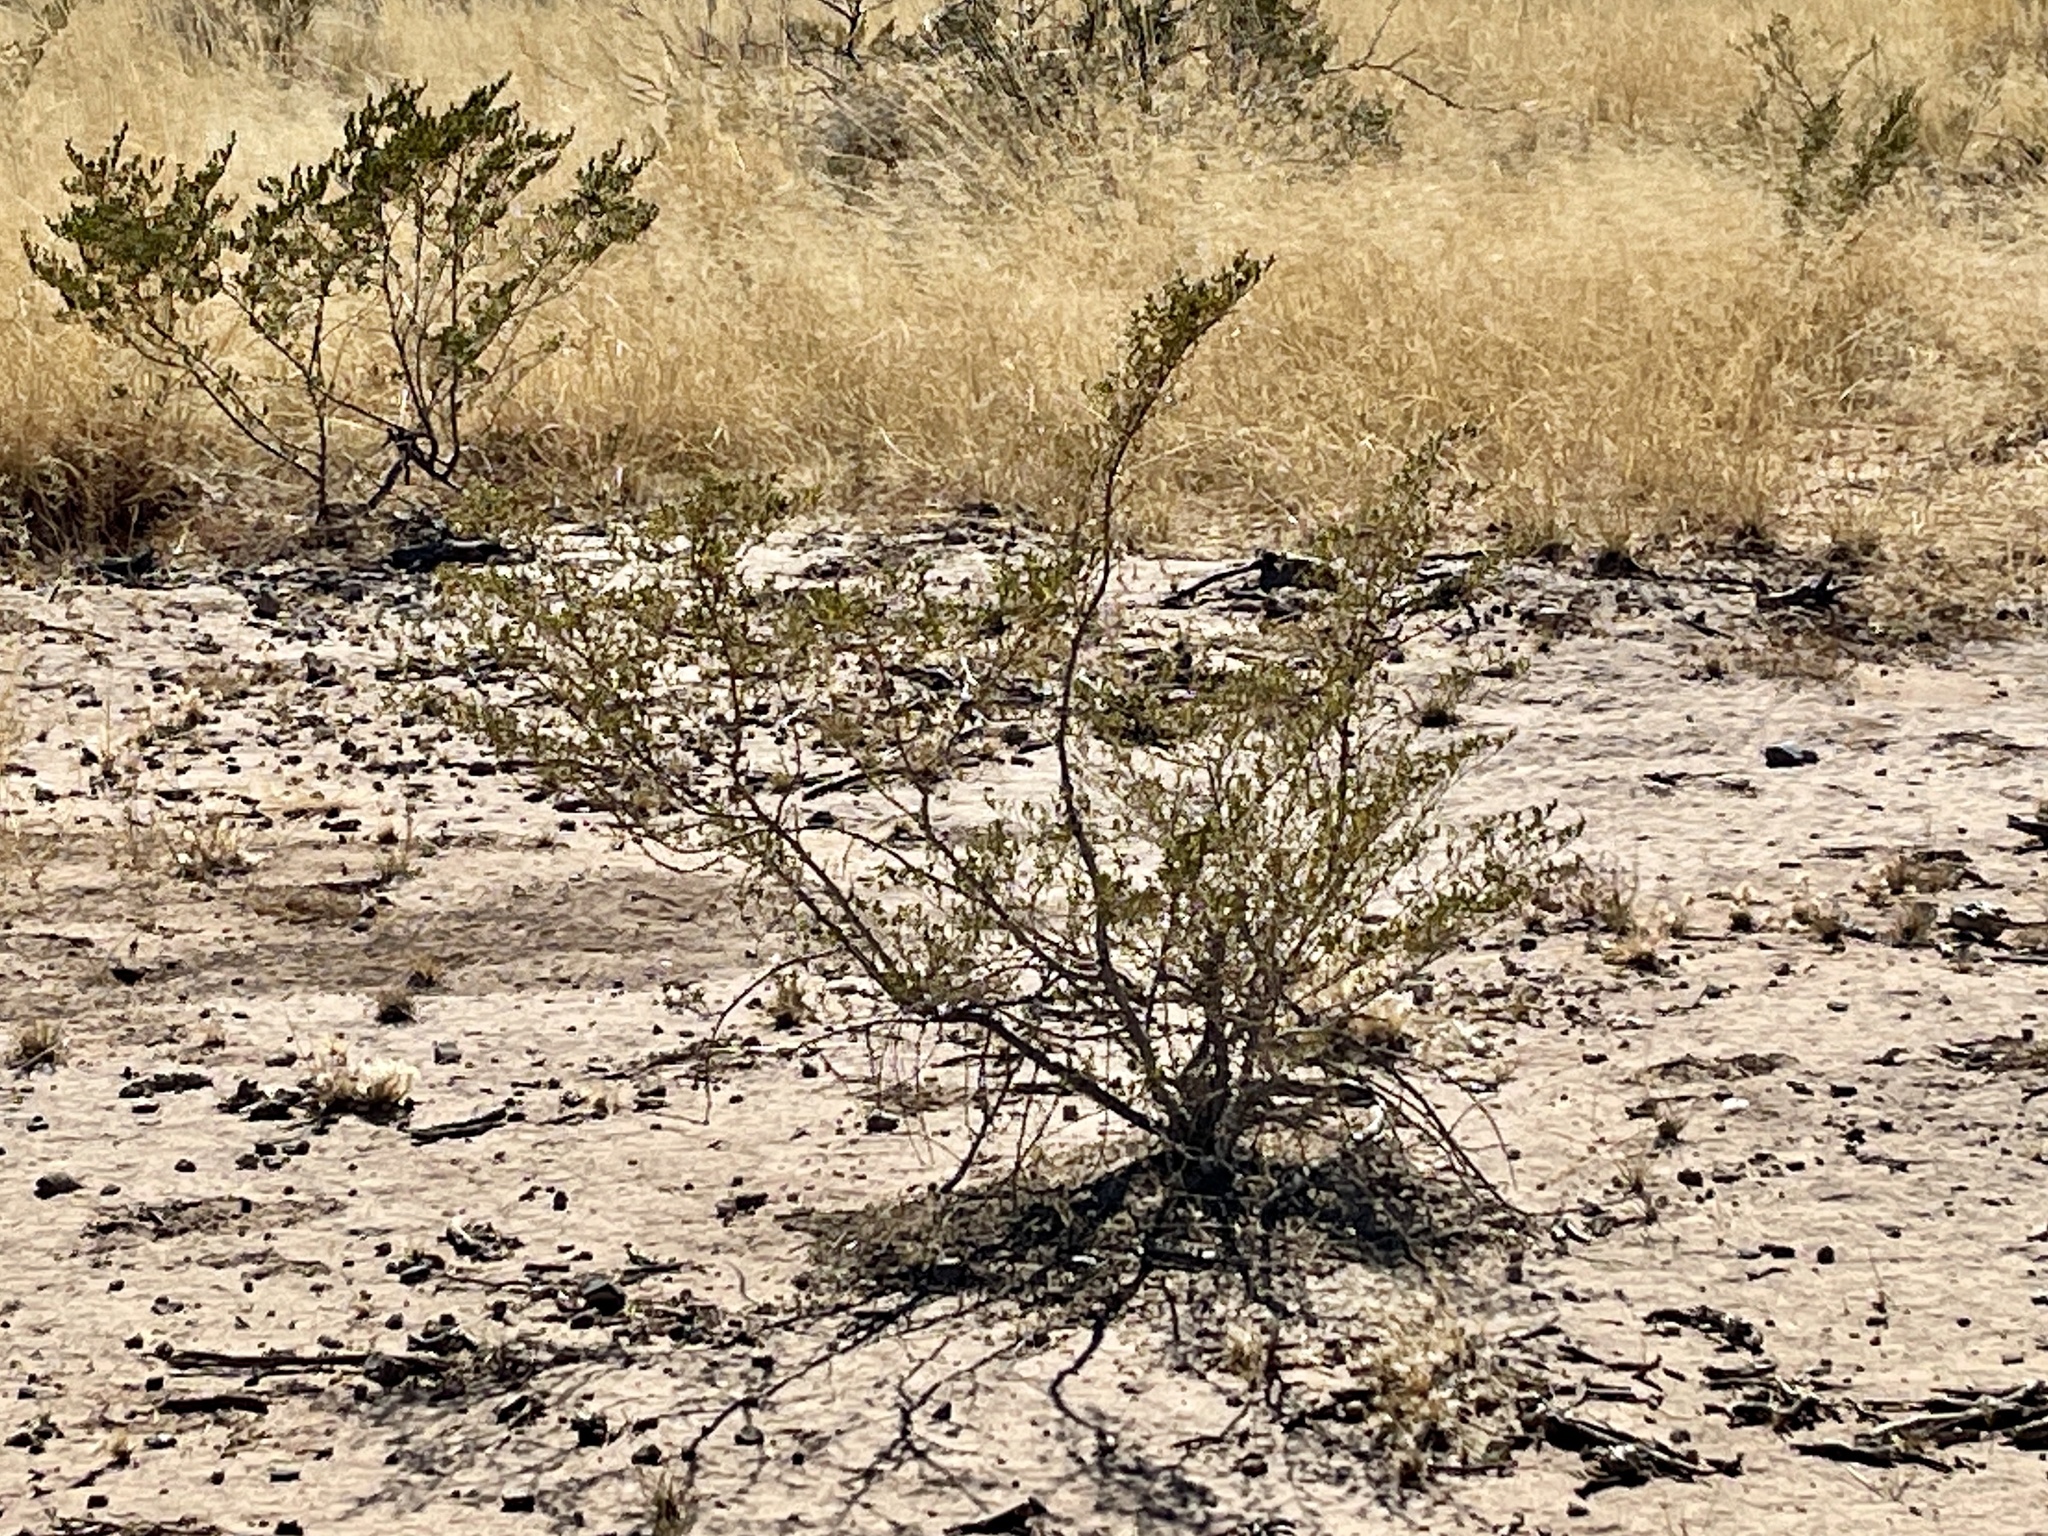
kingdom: Plantae
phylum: Tracheophyta
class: Magnoliopsida
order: Zygophyllales
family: Zygophyllaceae
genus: Larrea
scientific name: Larrea tridentata
